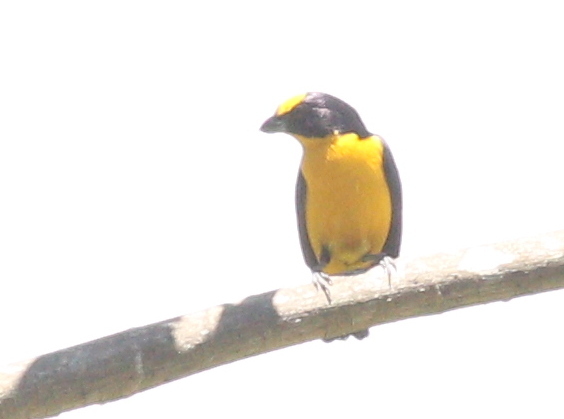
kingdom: Animalia
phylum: Chordata
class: Aves
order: Passeriformes
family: Fringillidae
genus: Euphonia
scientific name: Euphonia laniirostris
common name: Thick-billed euphonia
